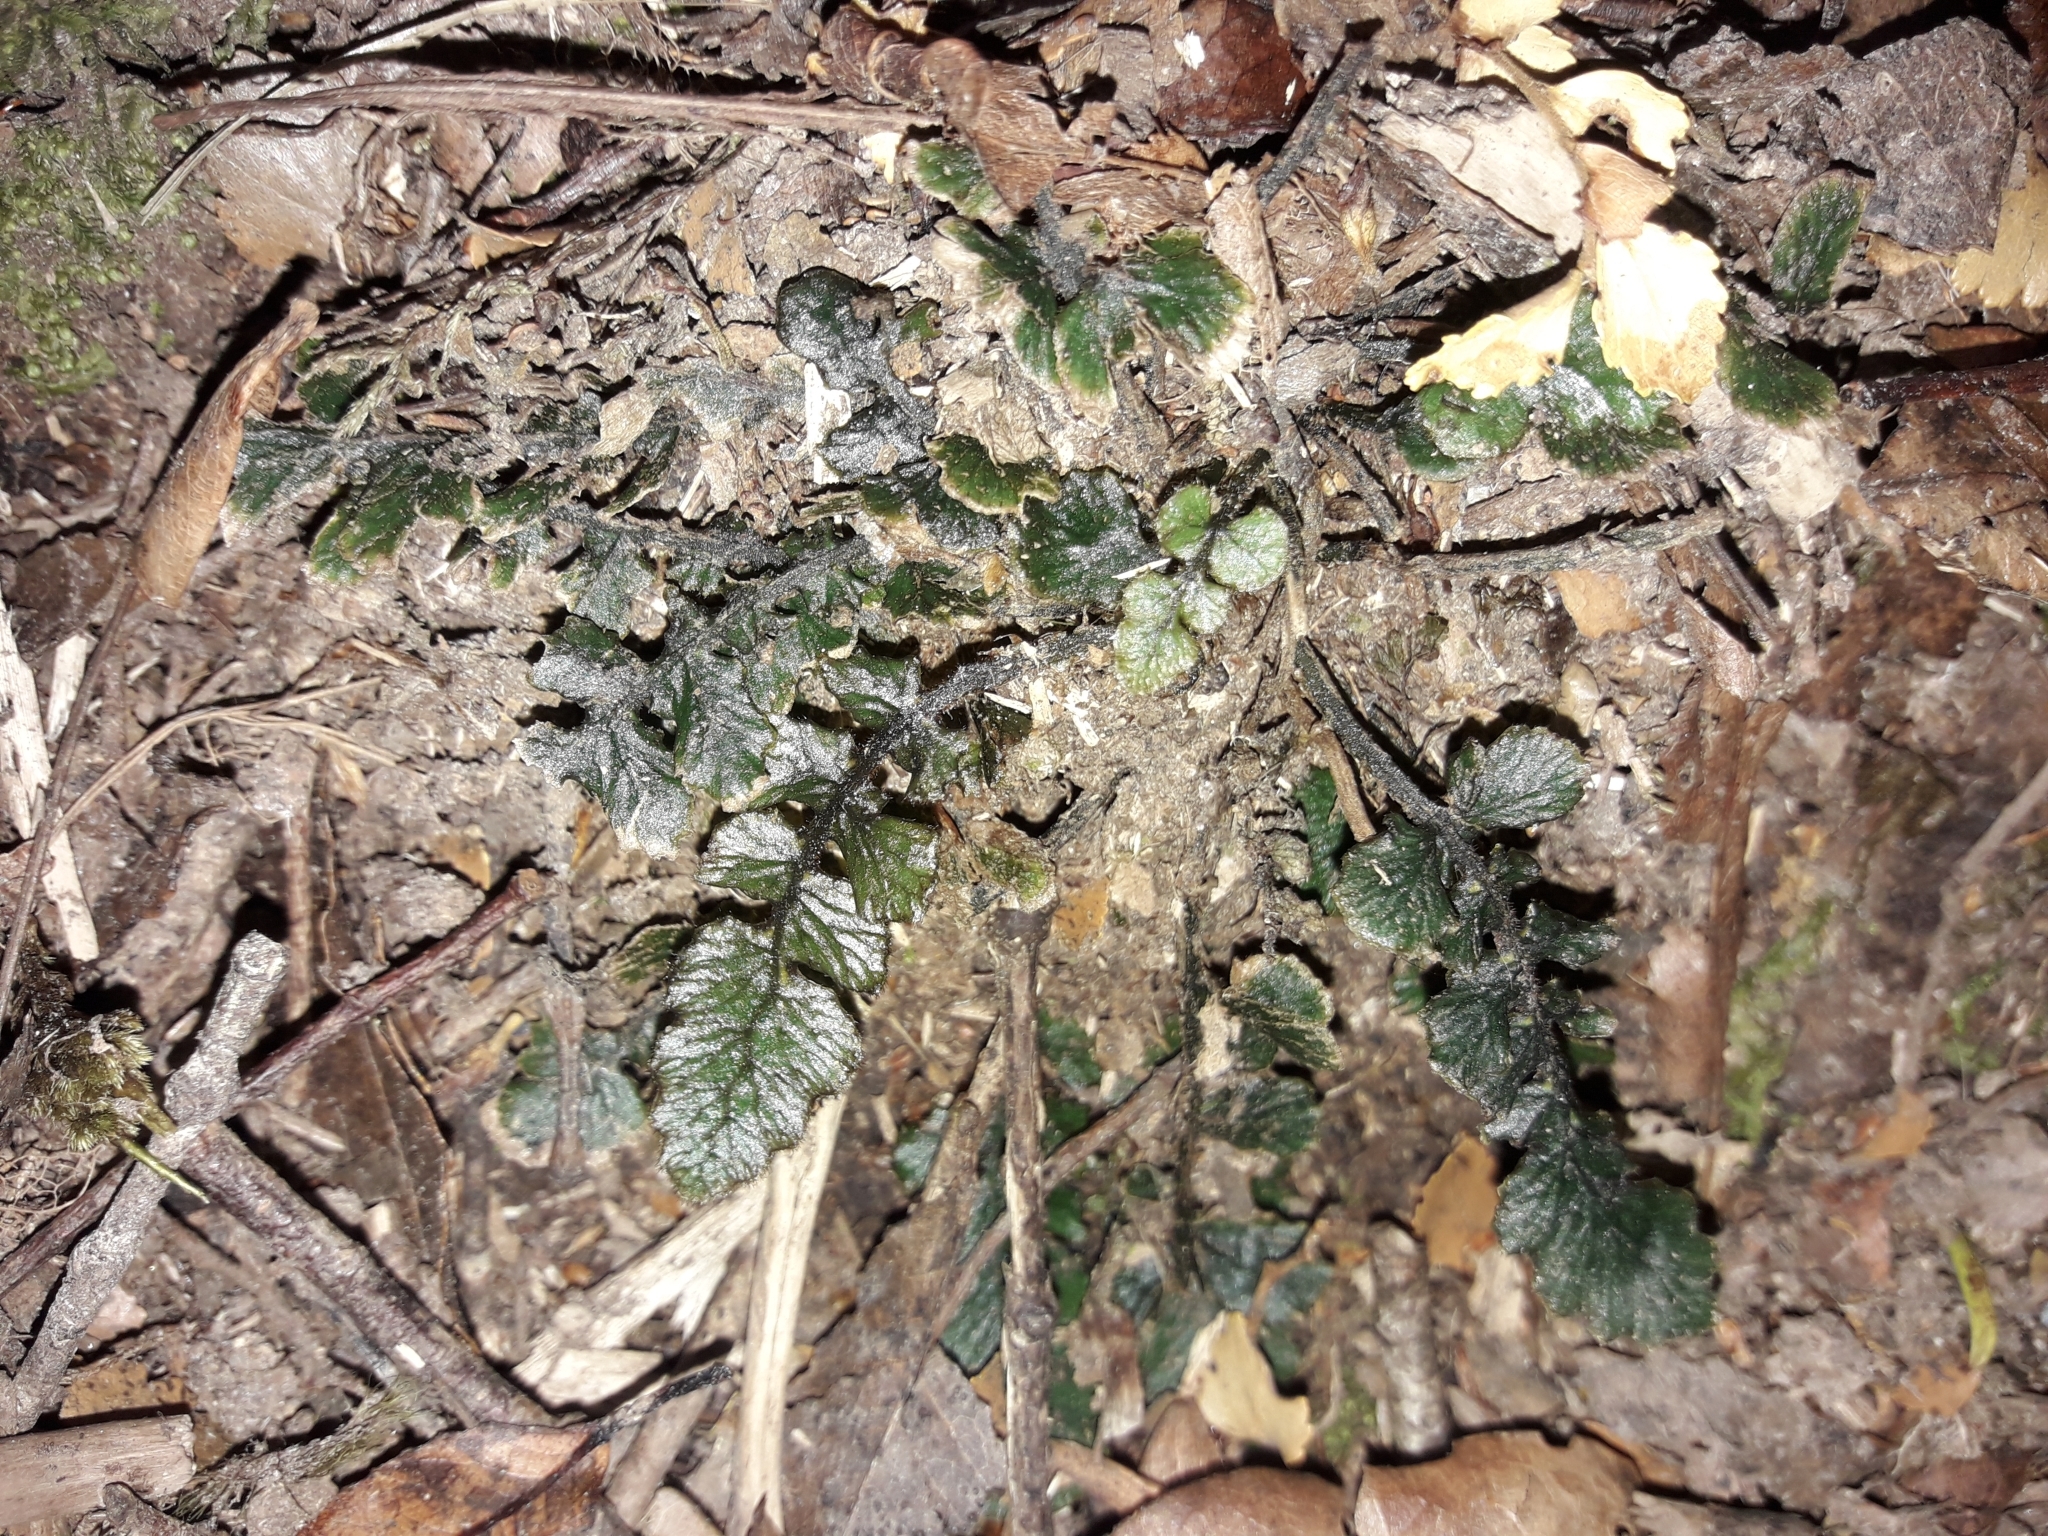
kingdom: Plantae
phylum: Tracheophyta
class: Polypodiopsida
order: Polypodiales
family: Blechnaceae
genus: Cranfillia
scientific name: Cranfillia nigra
